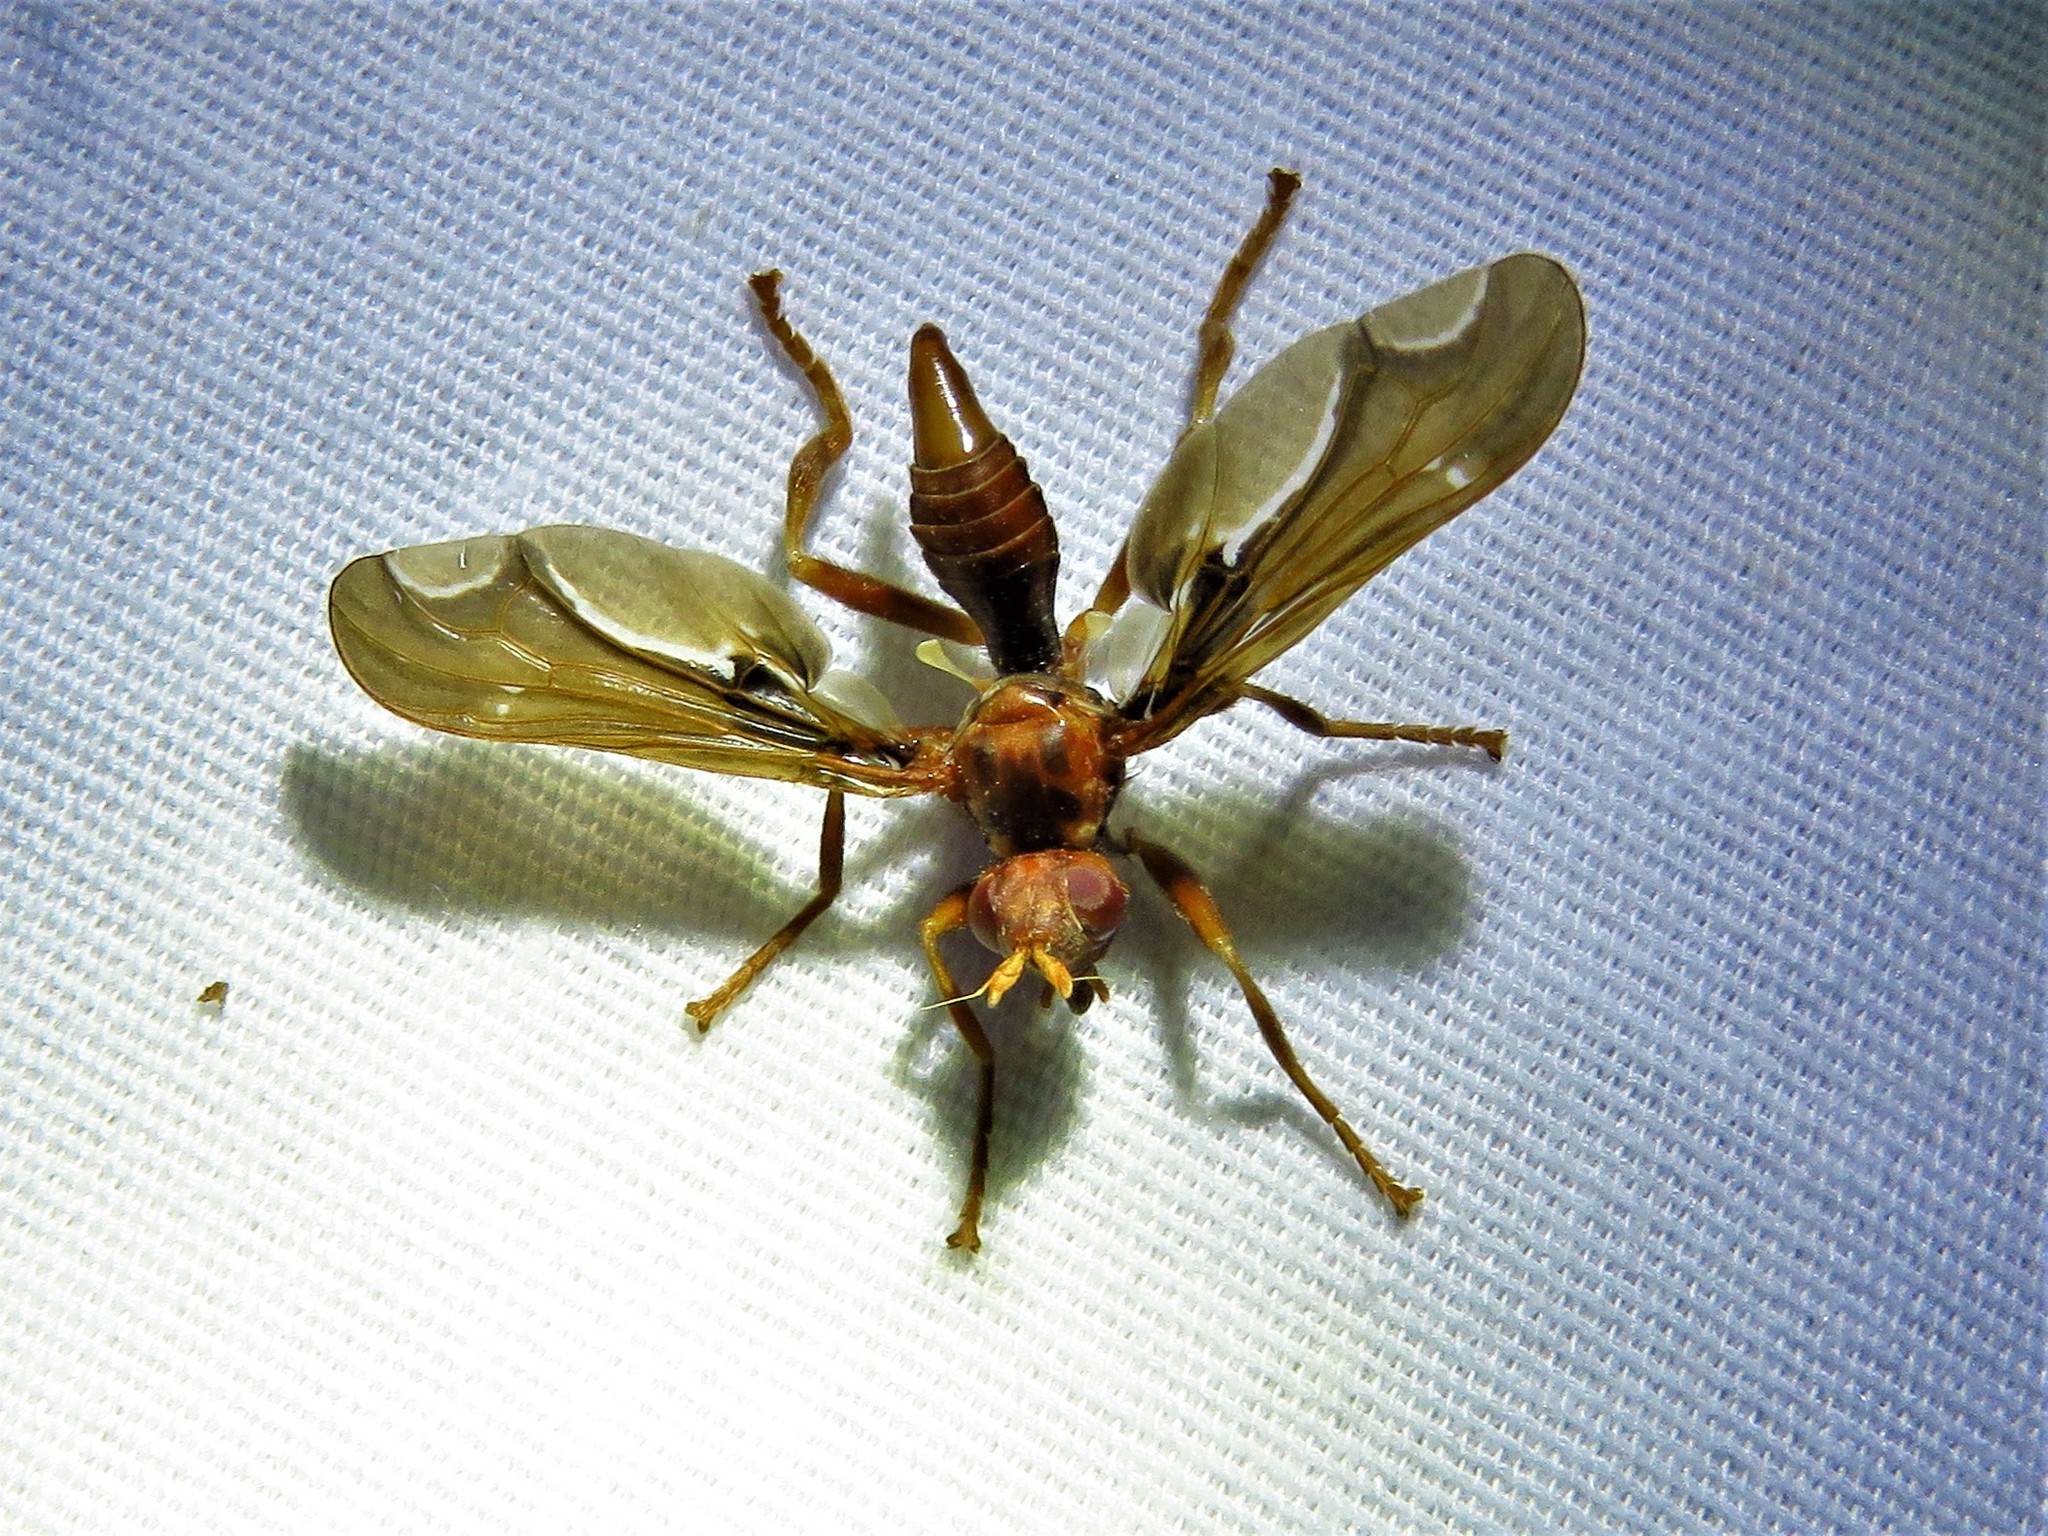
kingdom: Animalia
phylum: Arthropoda
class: Insecta
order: Diptera
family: Pyrgotidae
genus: Pyrgota
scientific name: Pyrgota undata
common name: Waved light fly
